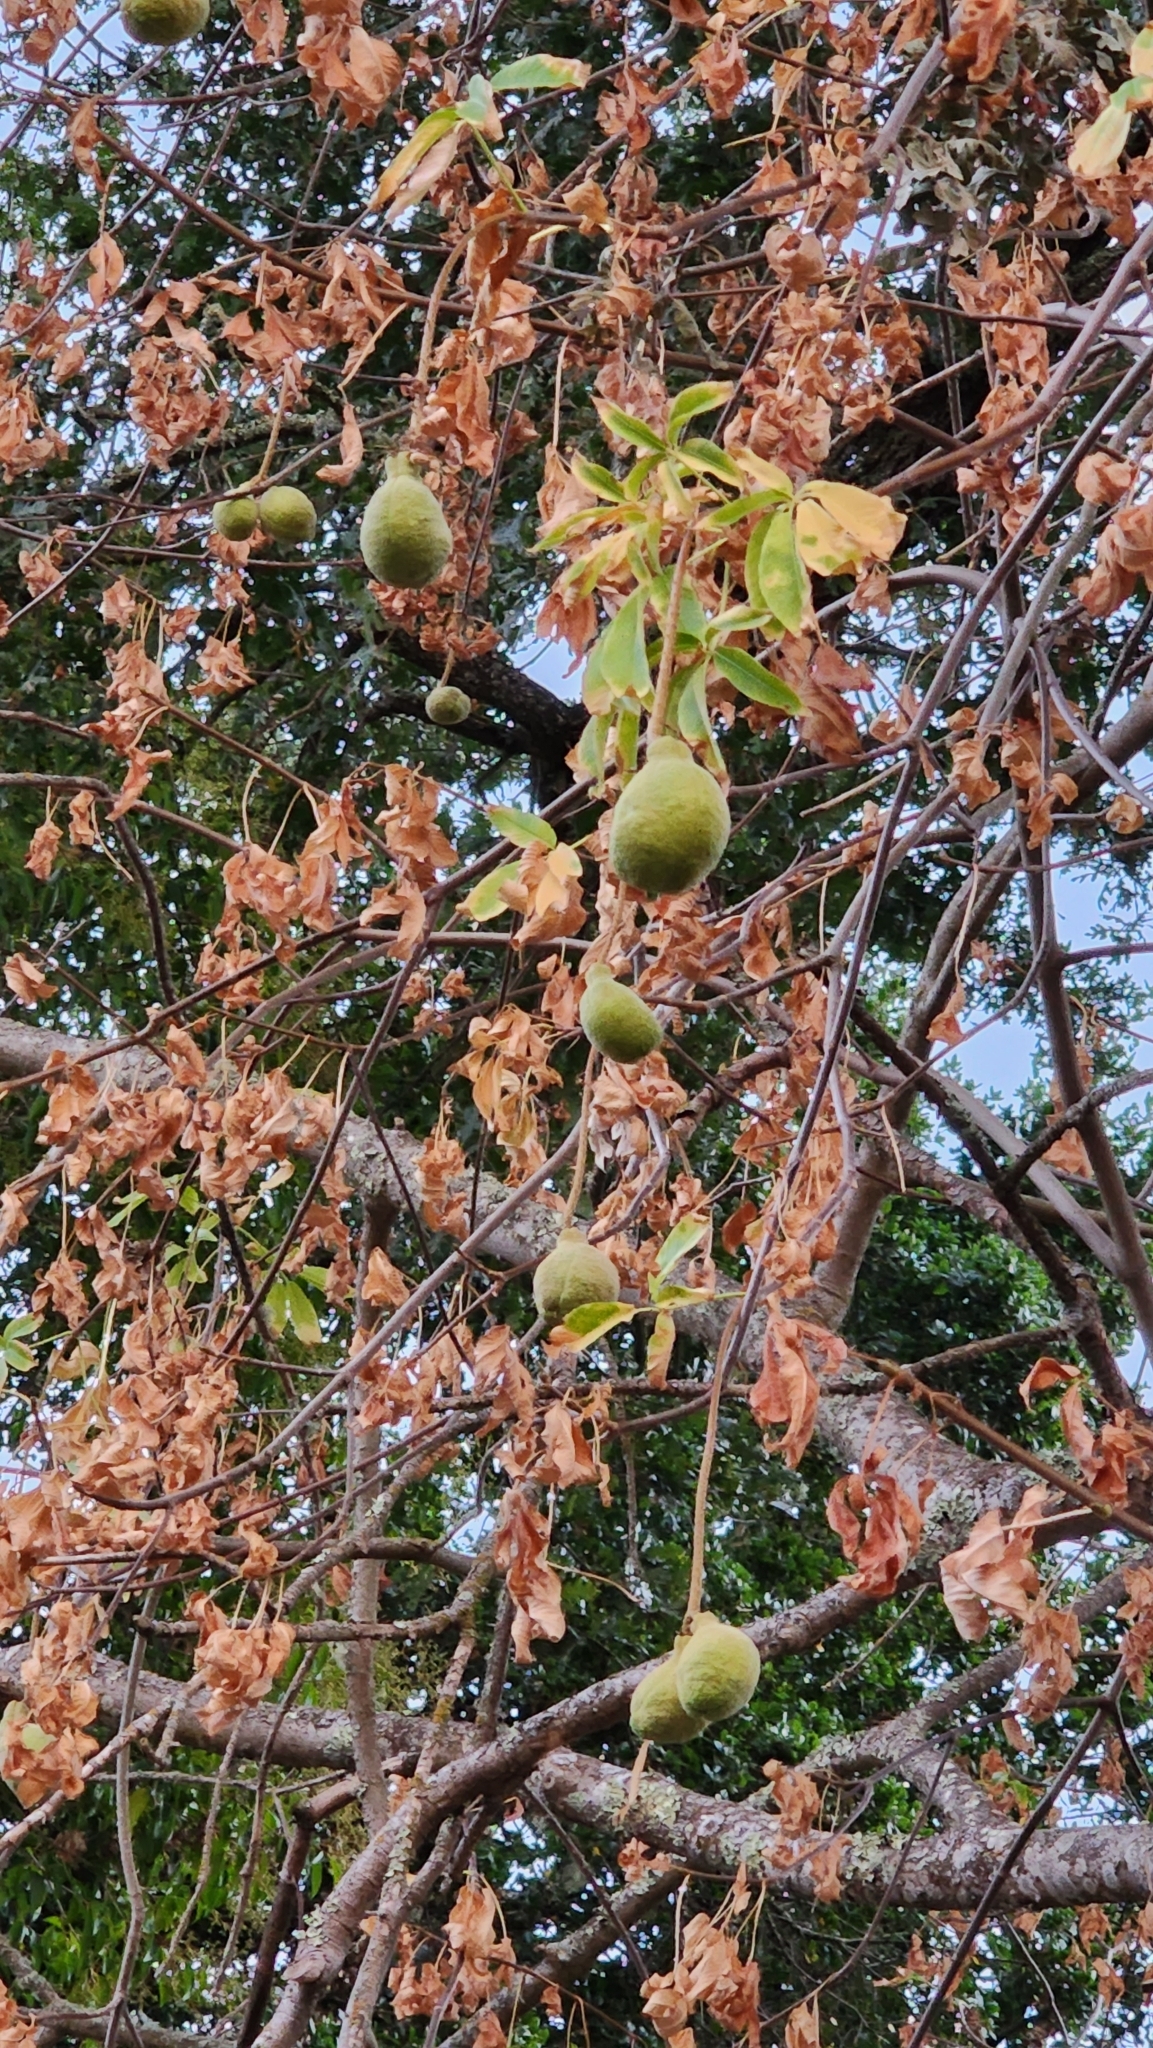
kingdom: Plantae
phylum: Tracheophyta
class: Magnoliopsida
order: Sapindales
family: Sapindaceae
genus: Aesculus
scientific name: Aesculus californica
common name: California buckeye
